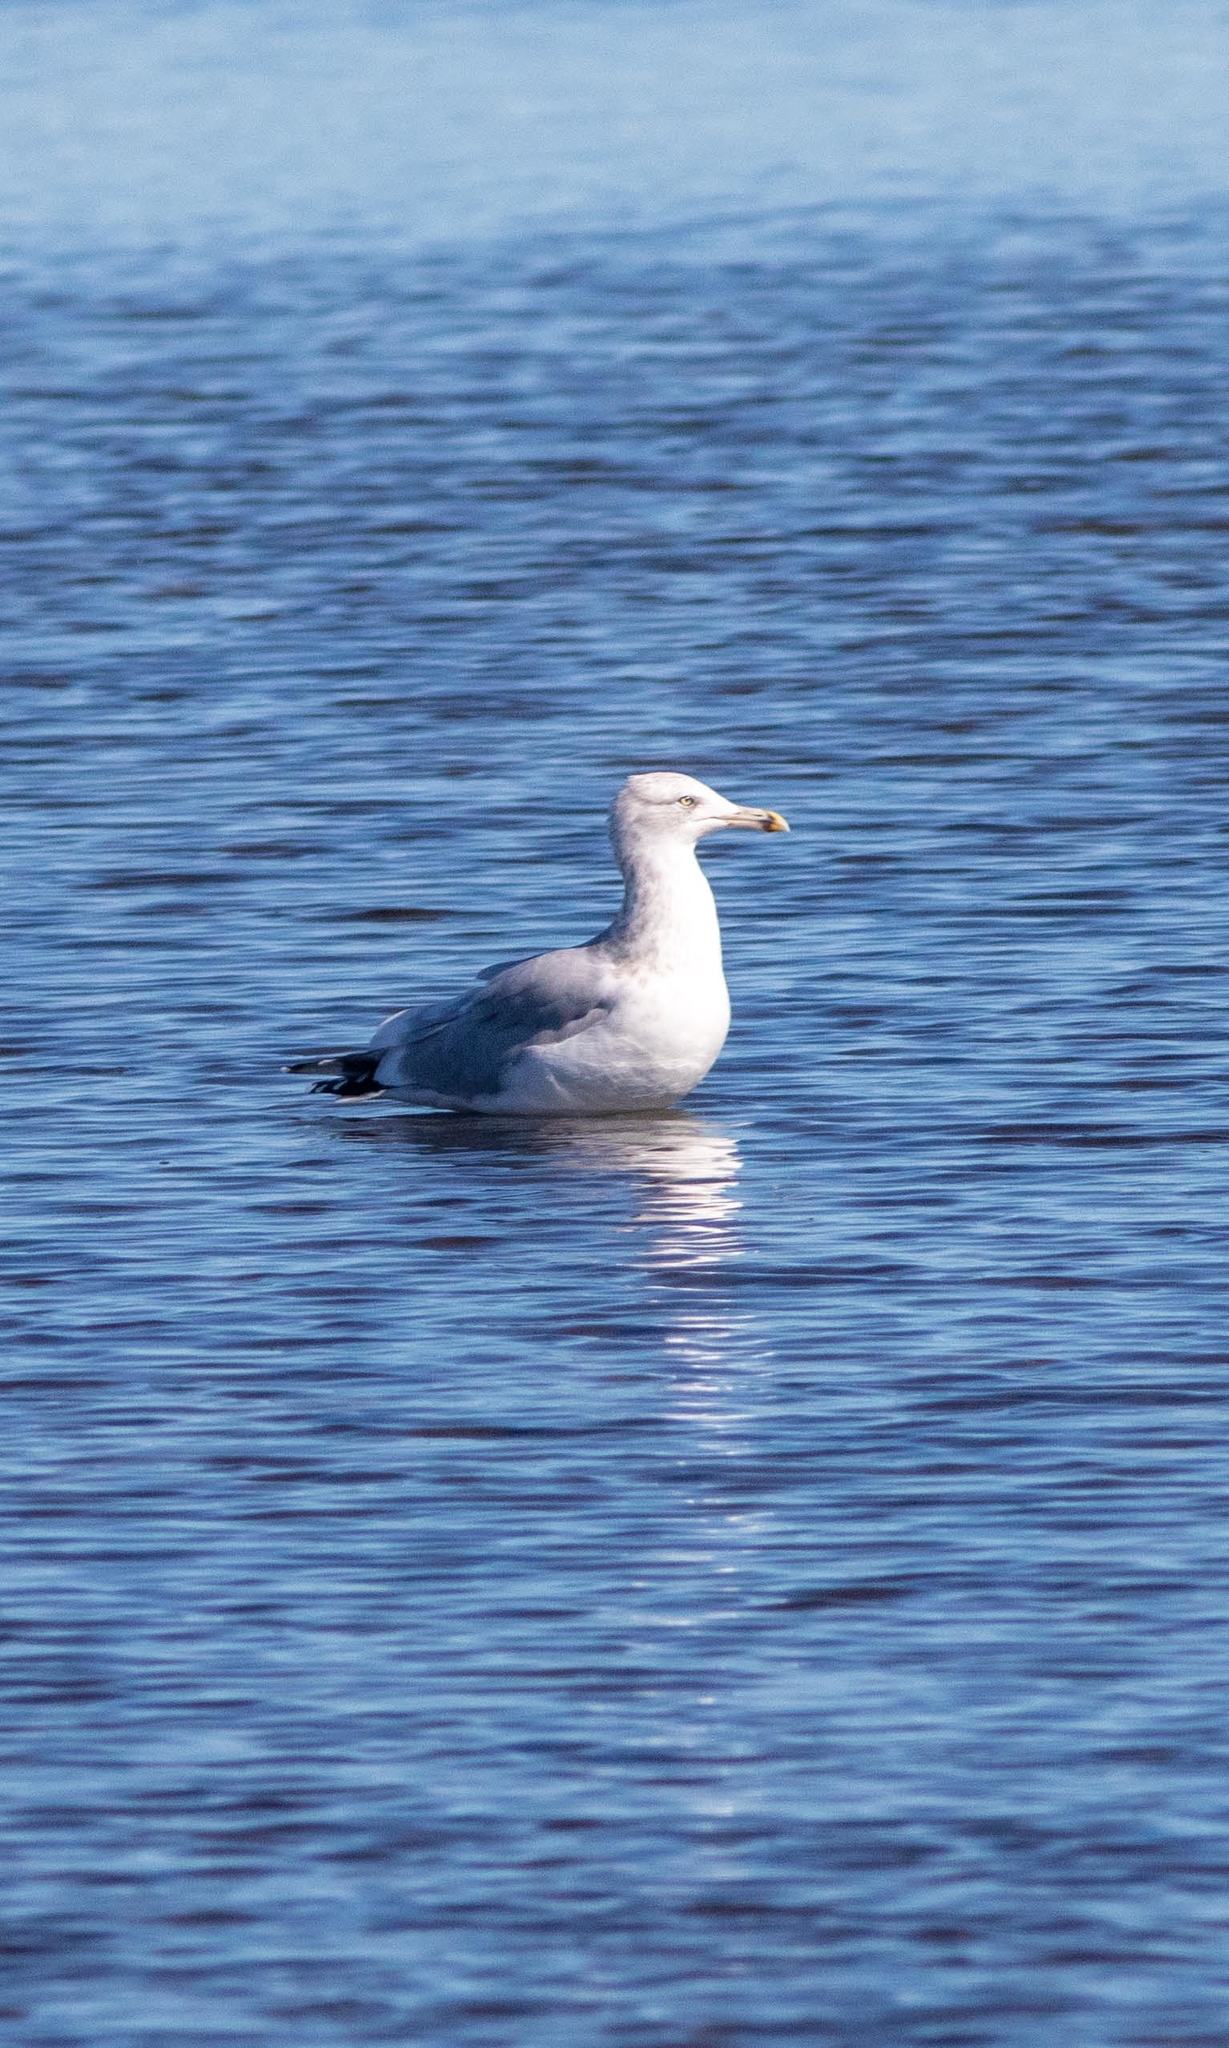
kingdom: Animalia
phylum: Chordata
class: Aves
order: Charadriiformes
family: Laridae
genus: Larus
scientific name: Larus argentatus
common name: Herring gull
